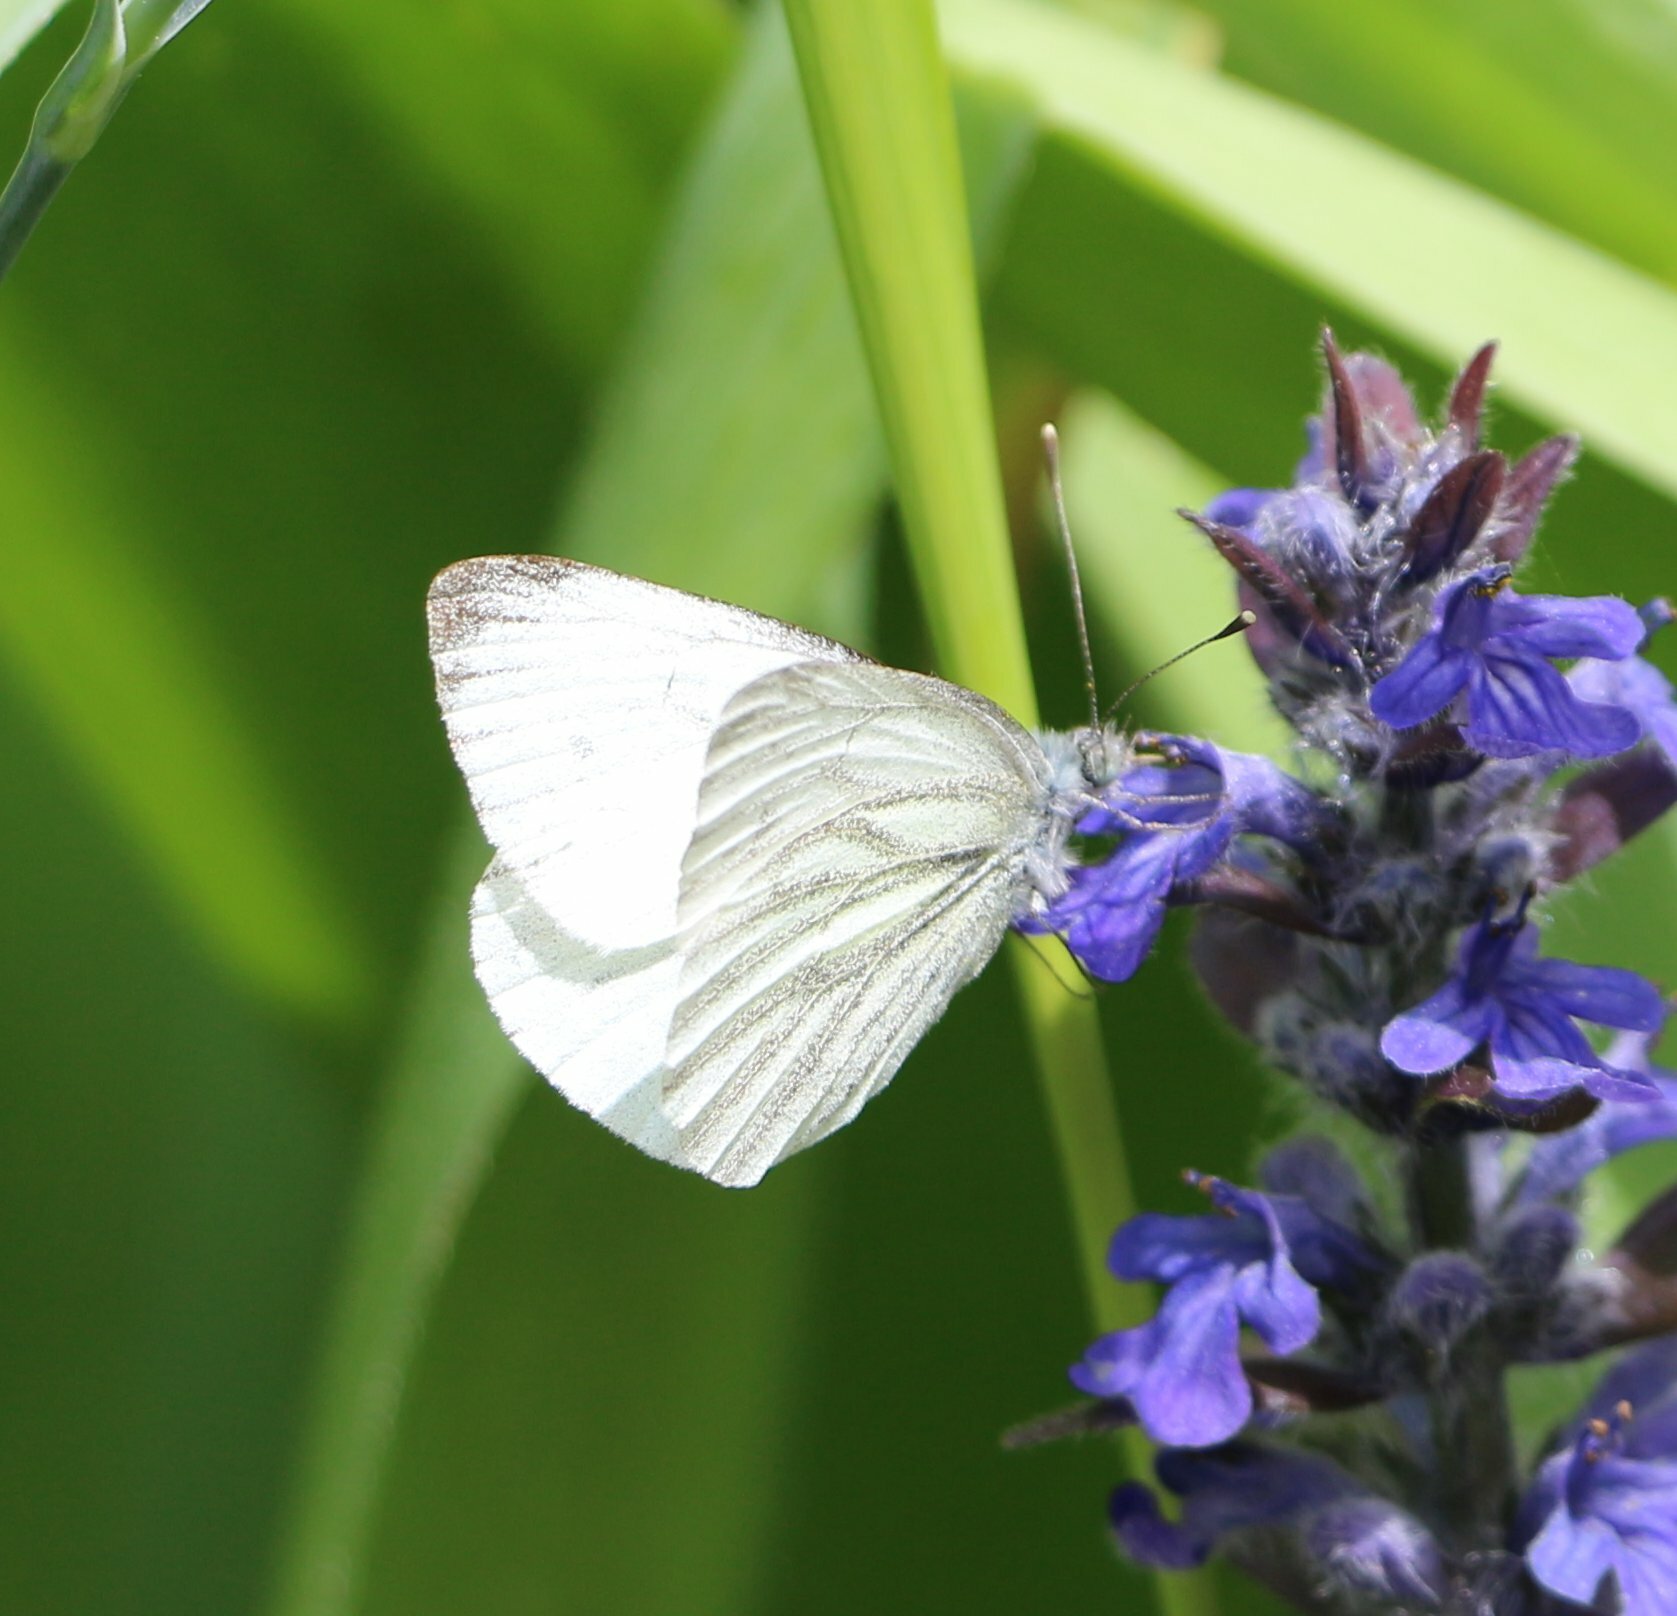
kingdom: Animalia
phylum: Arthropoda
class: Insecta
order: Lepidoptera
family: Pieridae
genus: Pieris
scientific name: Pieris napi
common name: Green-veined white
